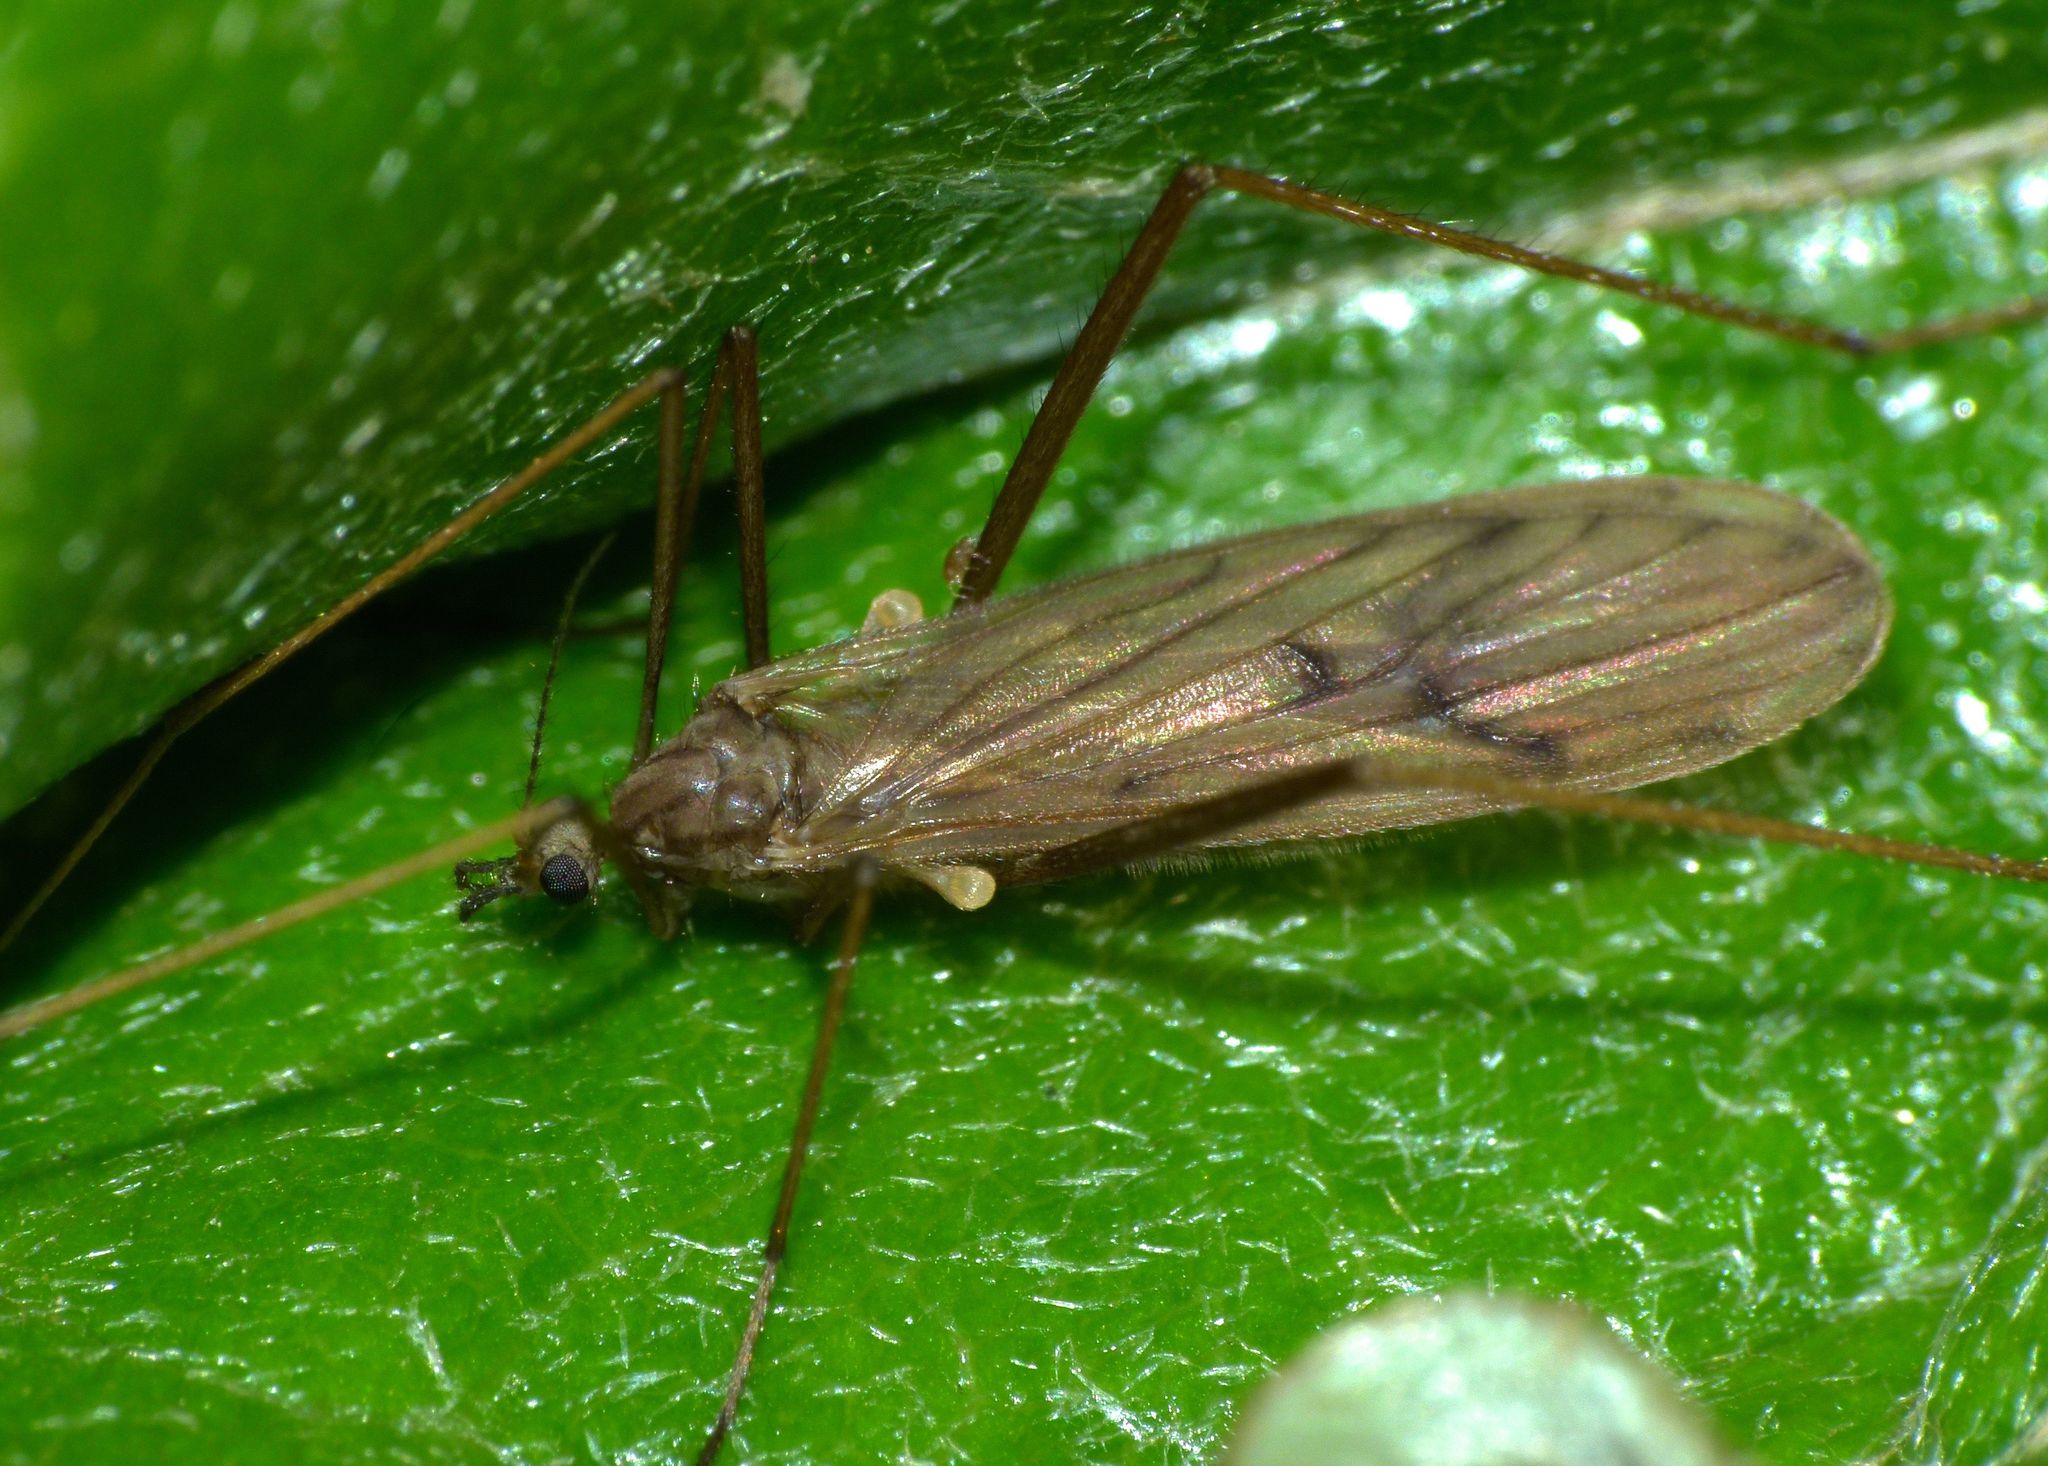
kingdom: Animalia
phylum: Arthropoda
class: Insecta
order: Diptera
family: Limoniidae
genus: Amphineurus
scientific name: Amphineurus insulsus
